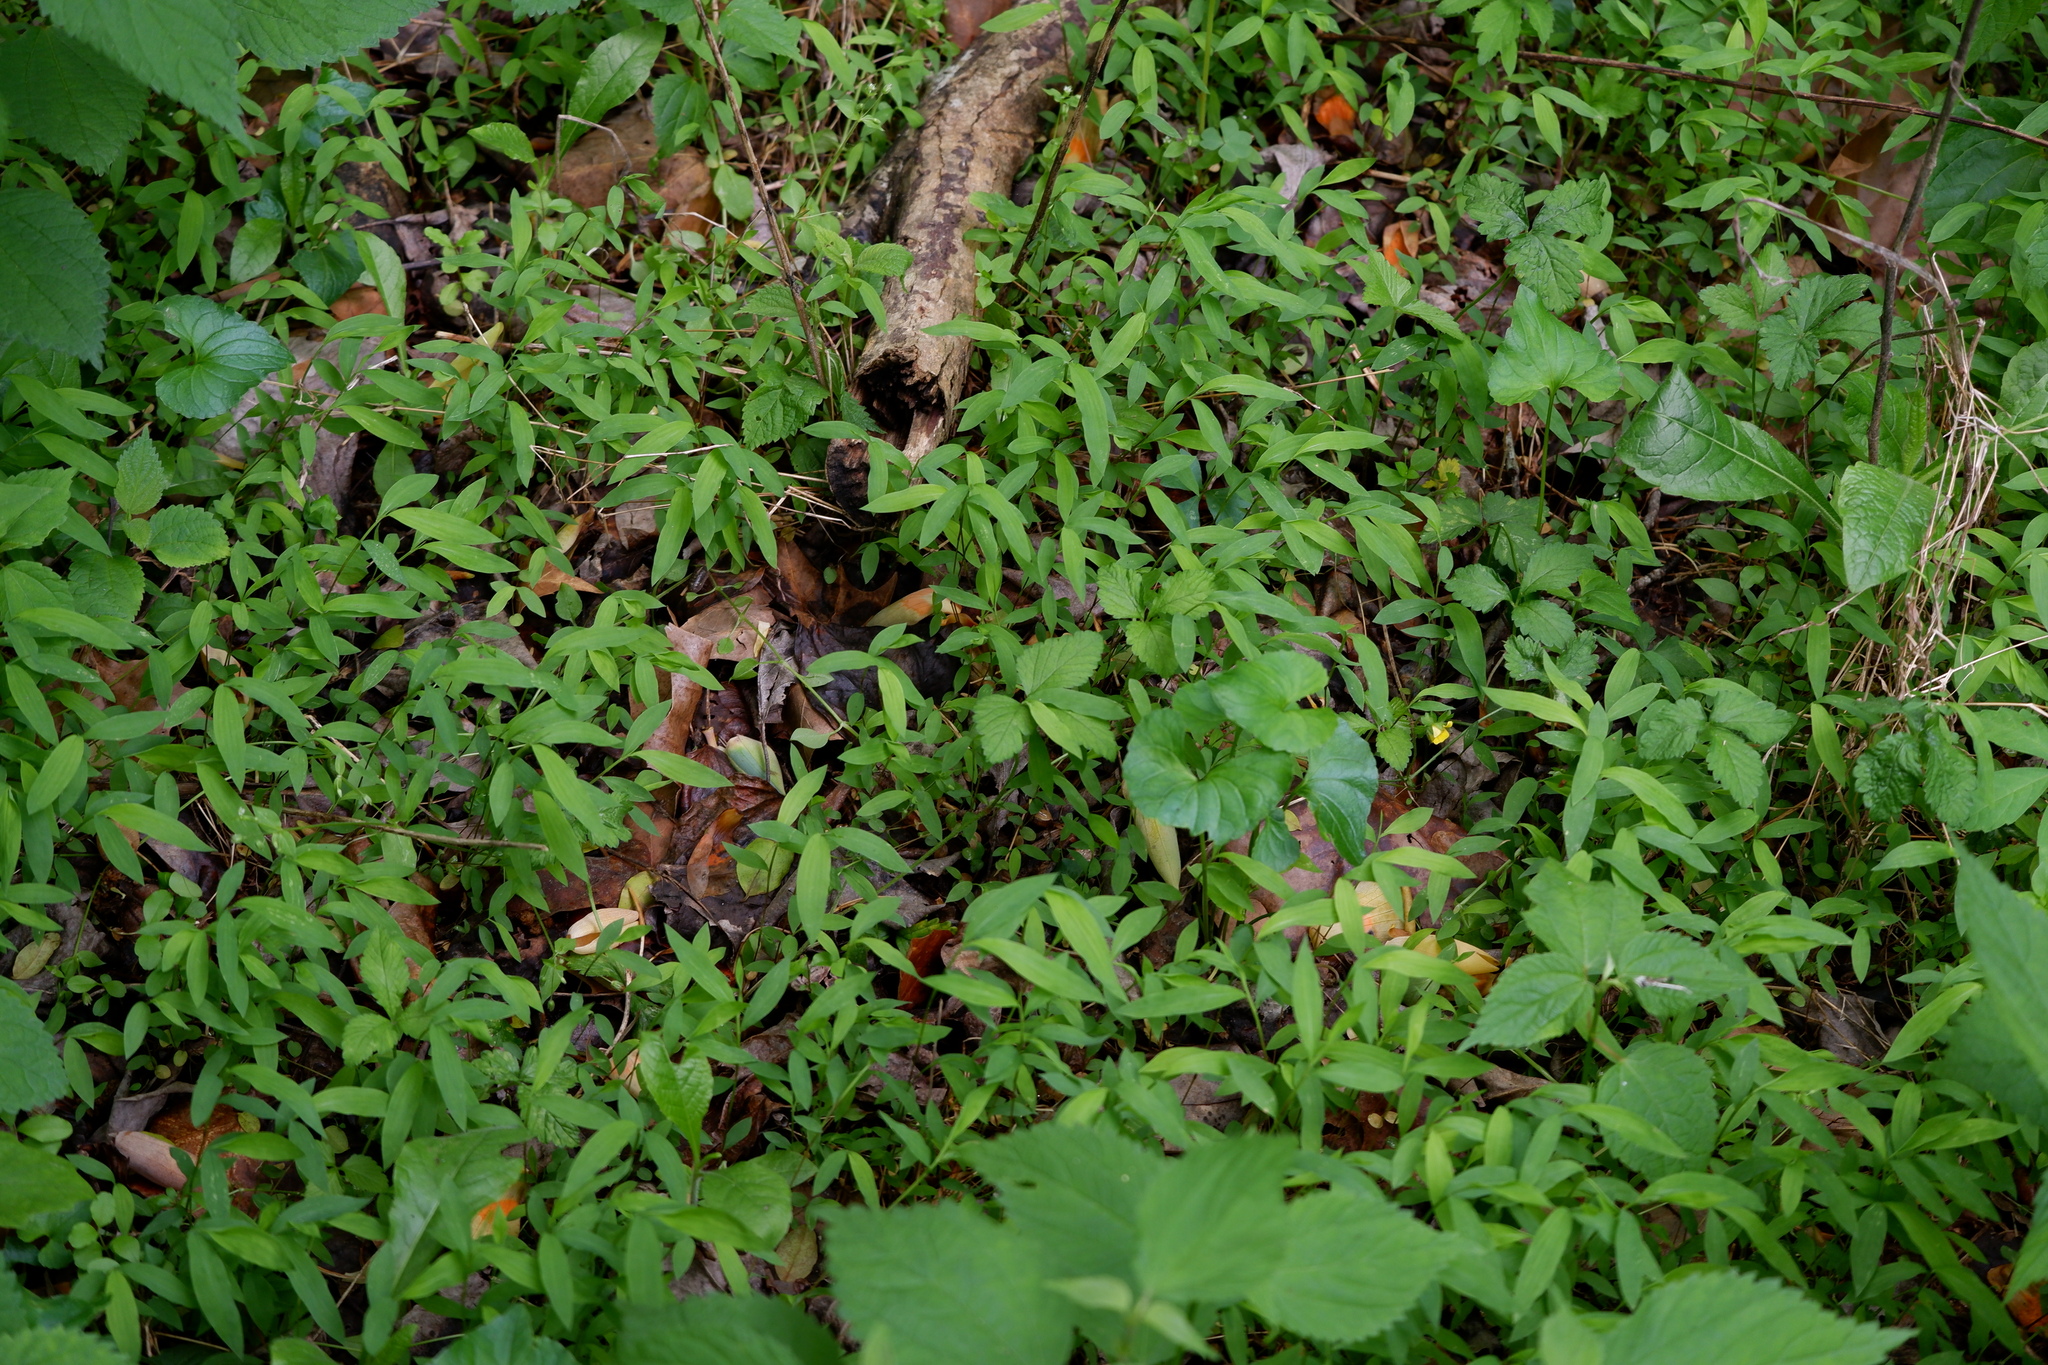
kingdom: Plantae
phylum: Tracheophyta
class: Liliopsida
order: Poales
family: Poaceae
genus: Microstegium
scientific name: Microstegium vimineum
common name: Japanese stiltgrass
